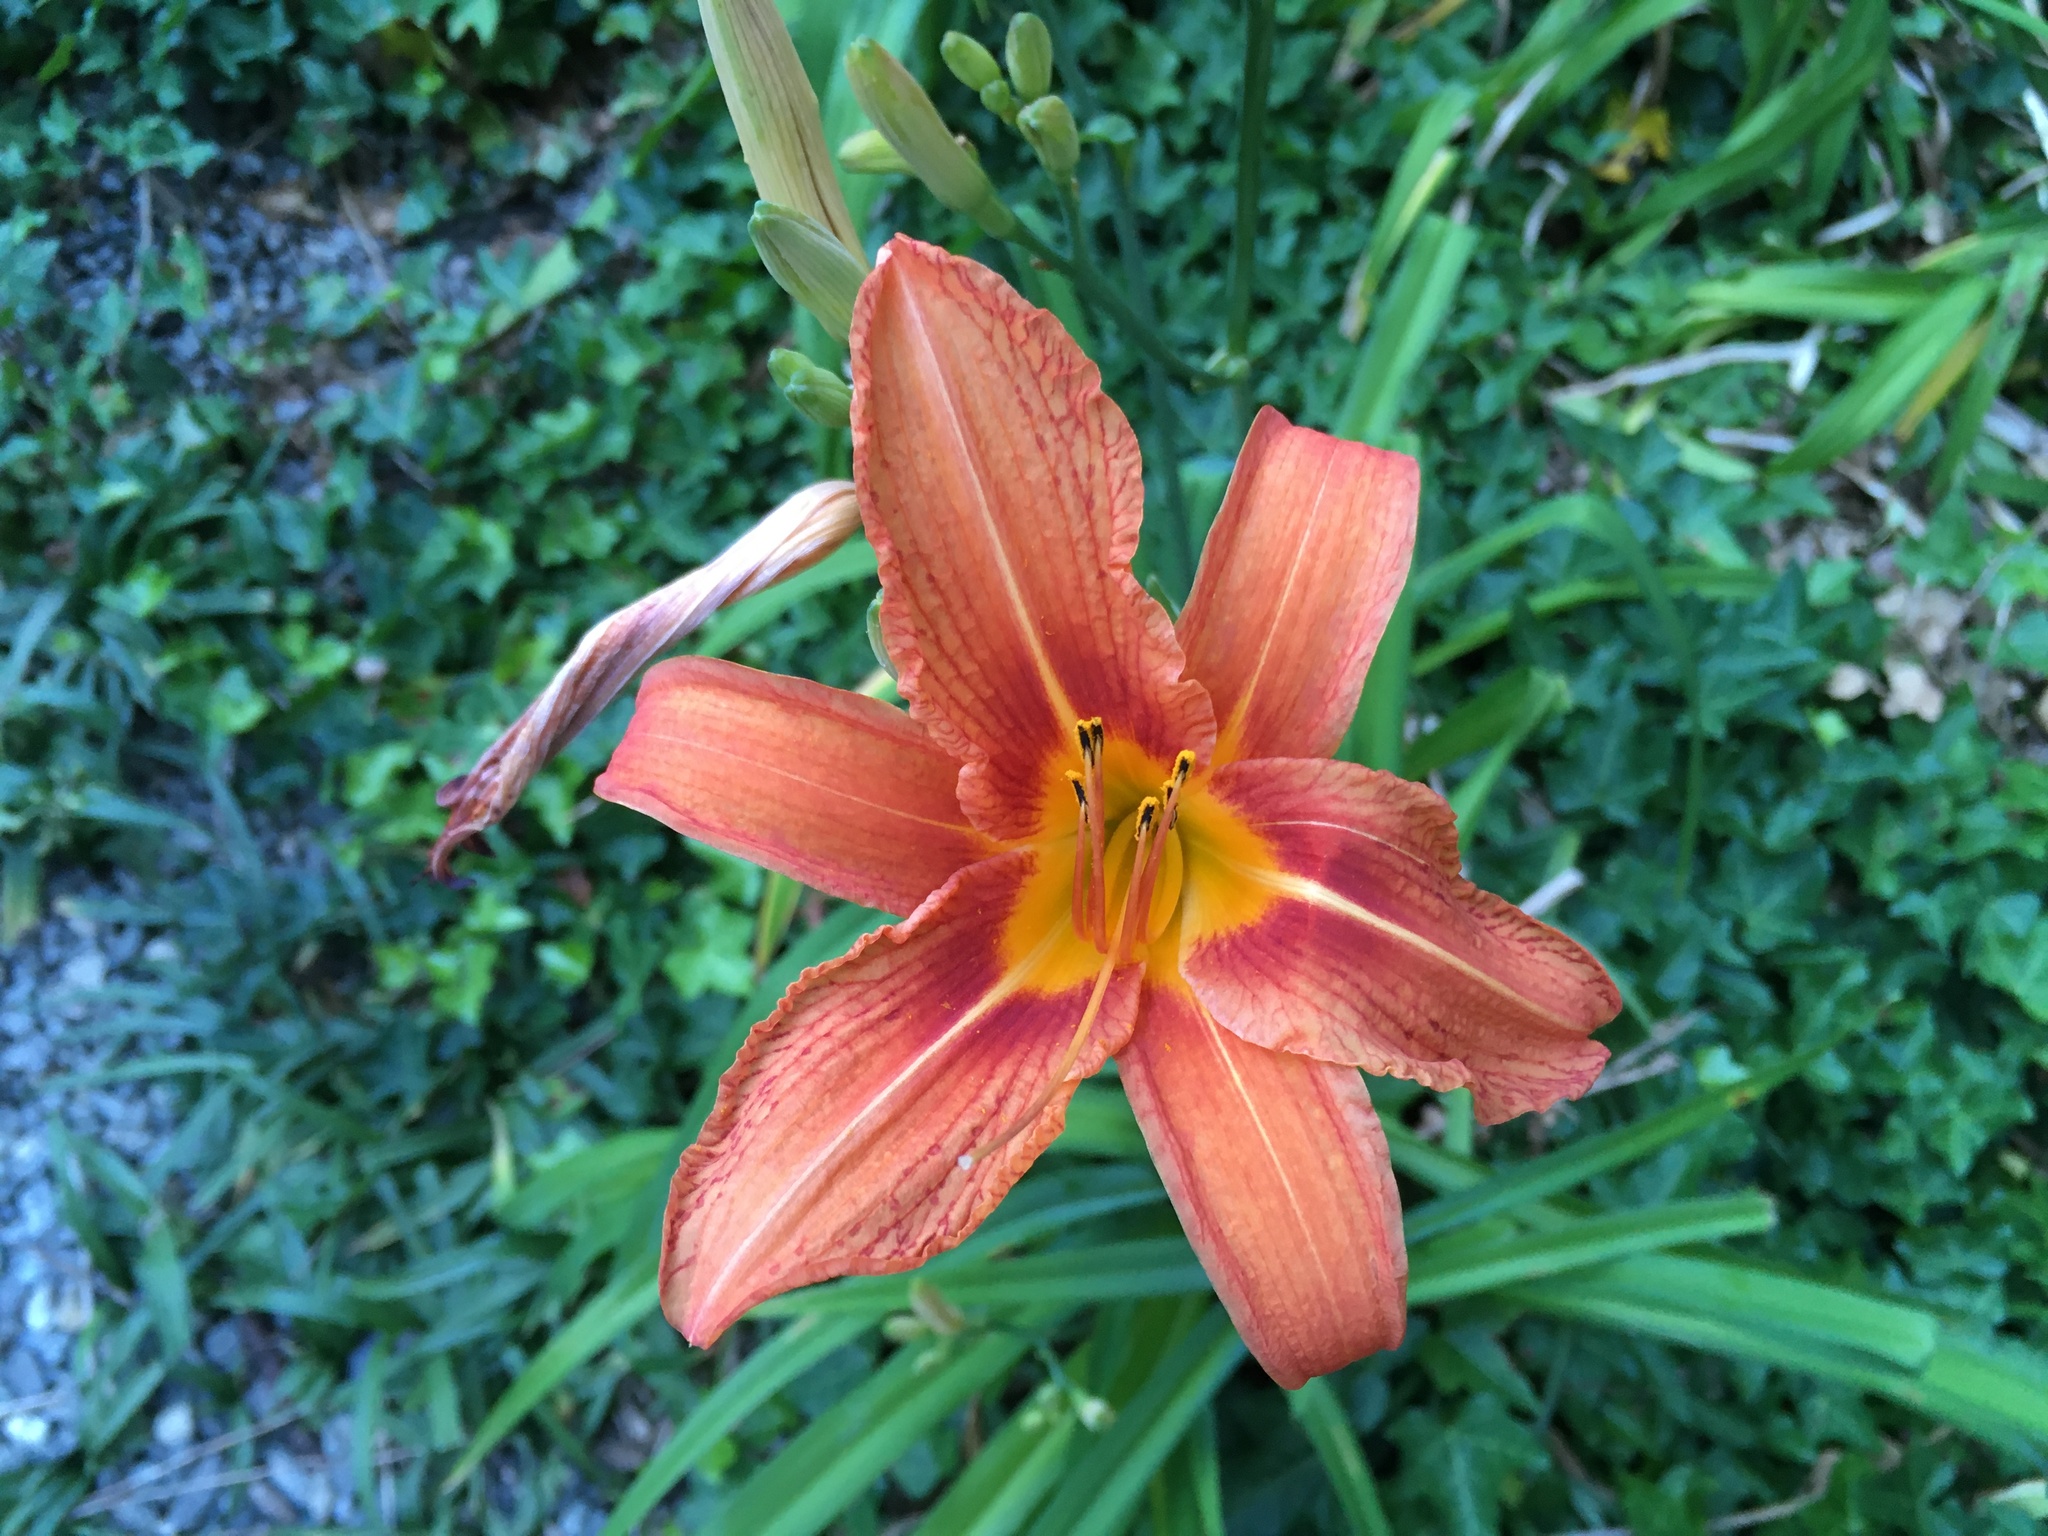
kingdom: Plantae
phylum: Tracheophyta
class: Liliopsida
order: Asparagales
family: Asphodelaceae
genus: Hemerocallis
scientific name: Hemerocallis fulva
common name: Orange day-lily
